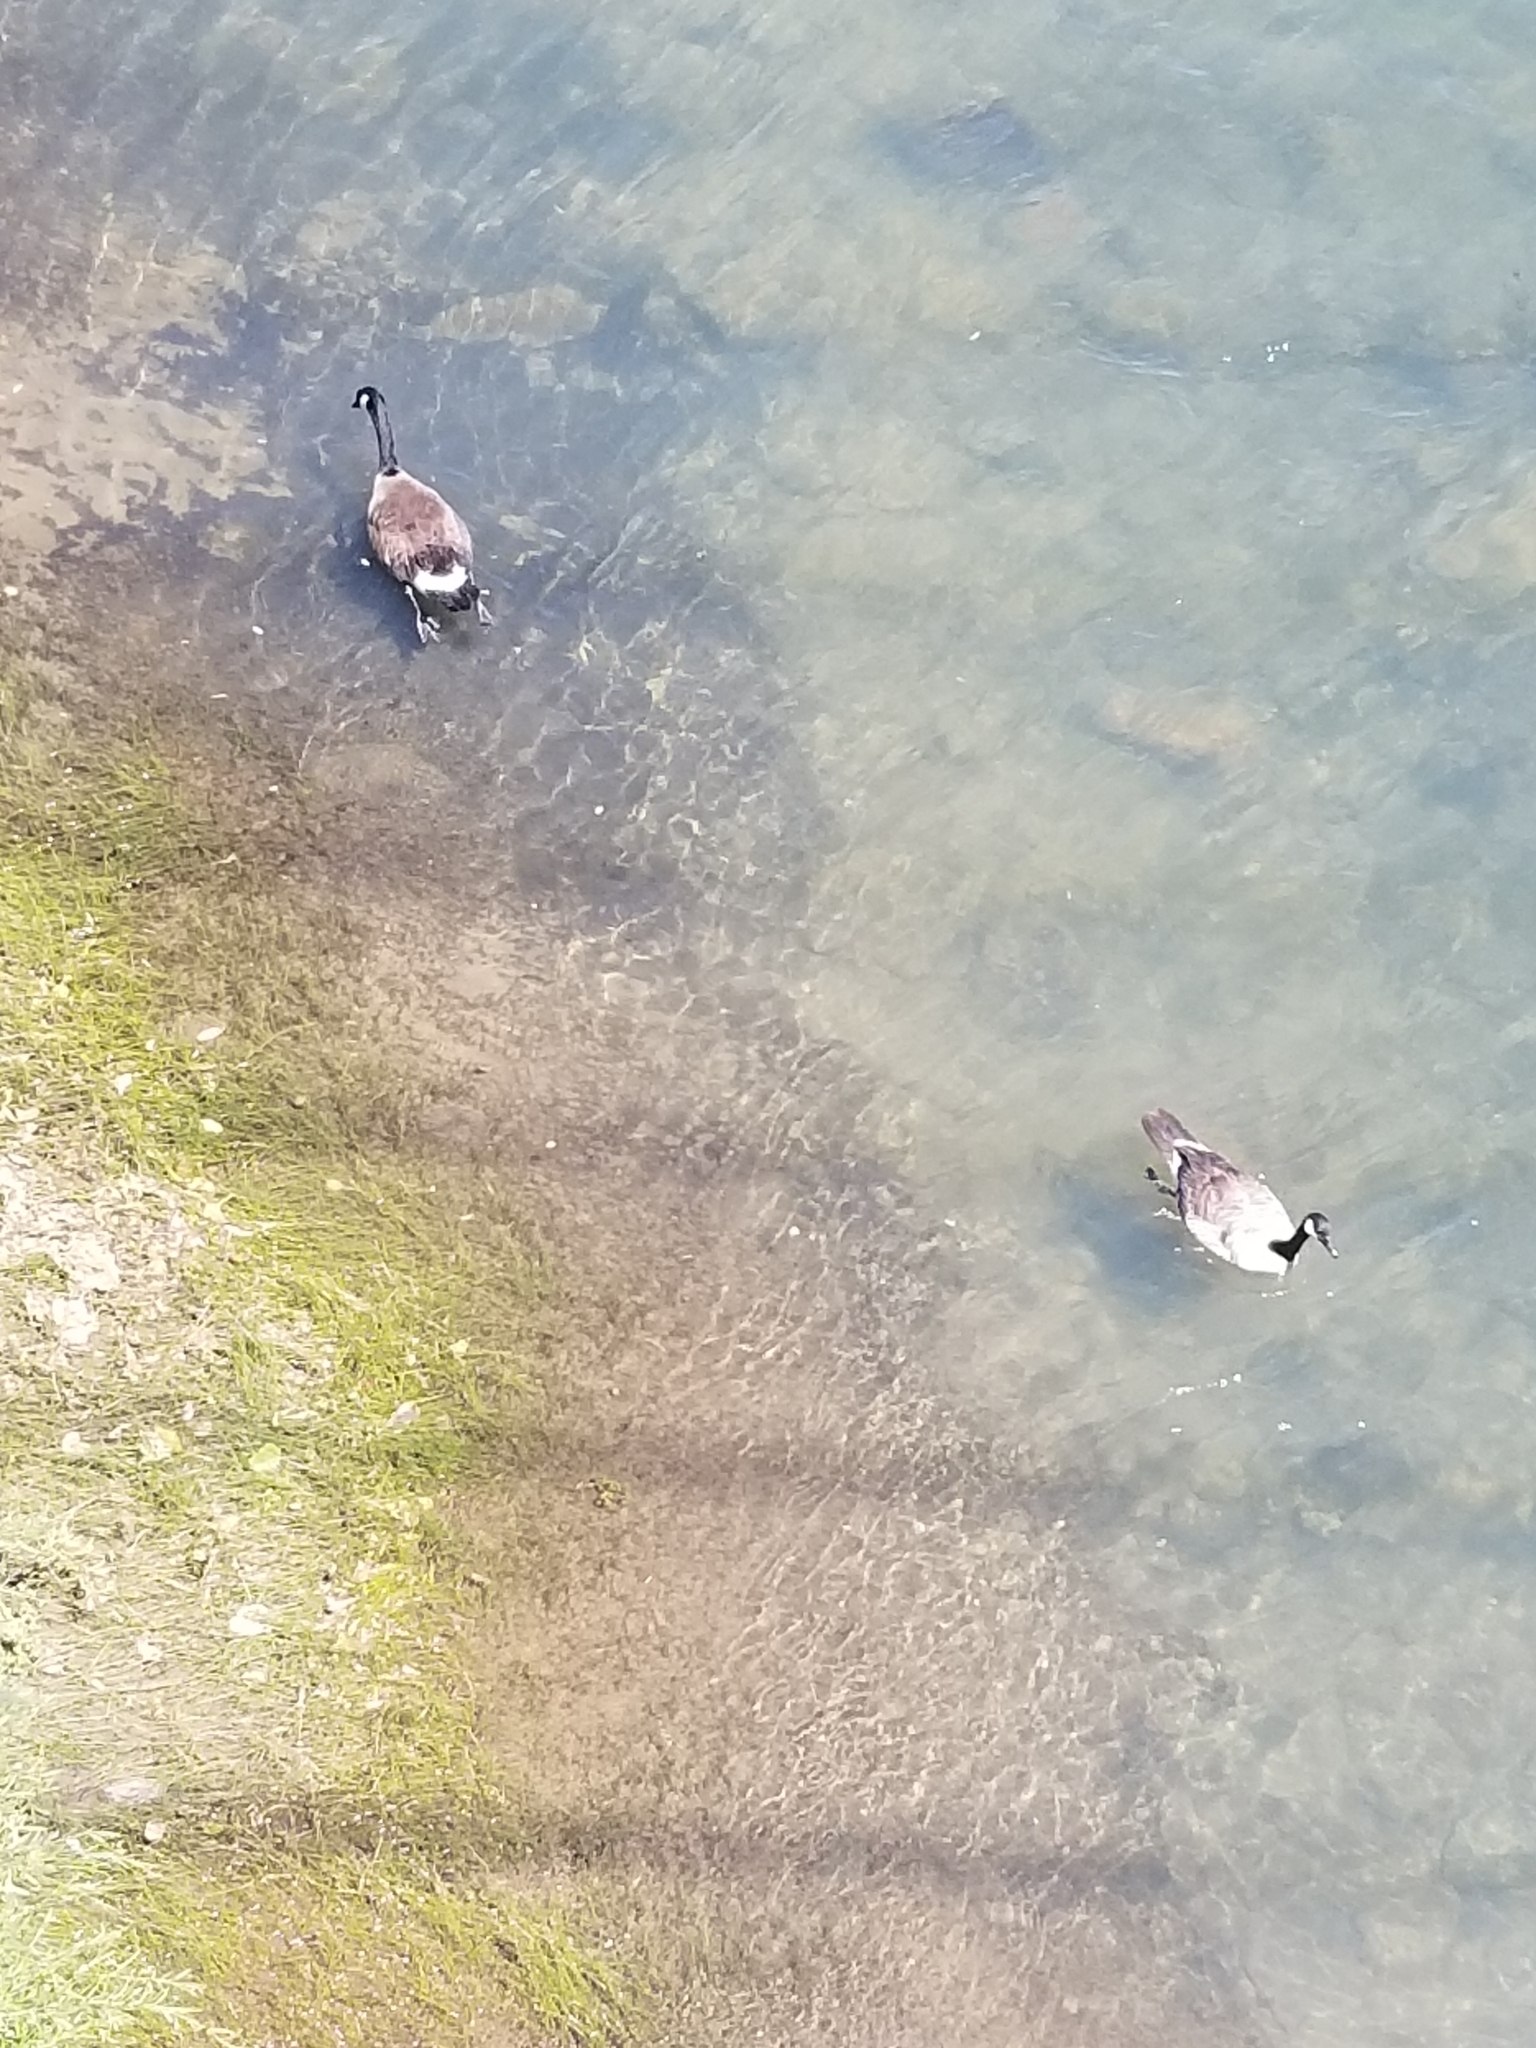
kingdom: Animalia
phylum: Chordata
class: Aves
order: Anseriformes
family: Anatidae
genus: Branta
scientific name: Branta canadensis
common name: Canada goose
